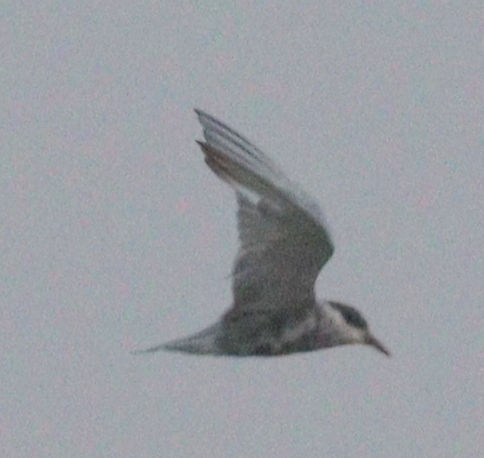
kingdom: Animalia
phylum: Chordata
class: Aves
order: Charadriiformes
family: Laridae
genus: Chlidonias
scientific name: Chlidonias hybrida
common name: Whiskered tern
